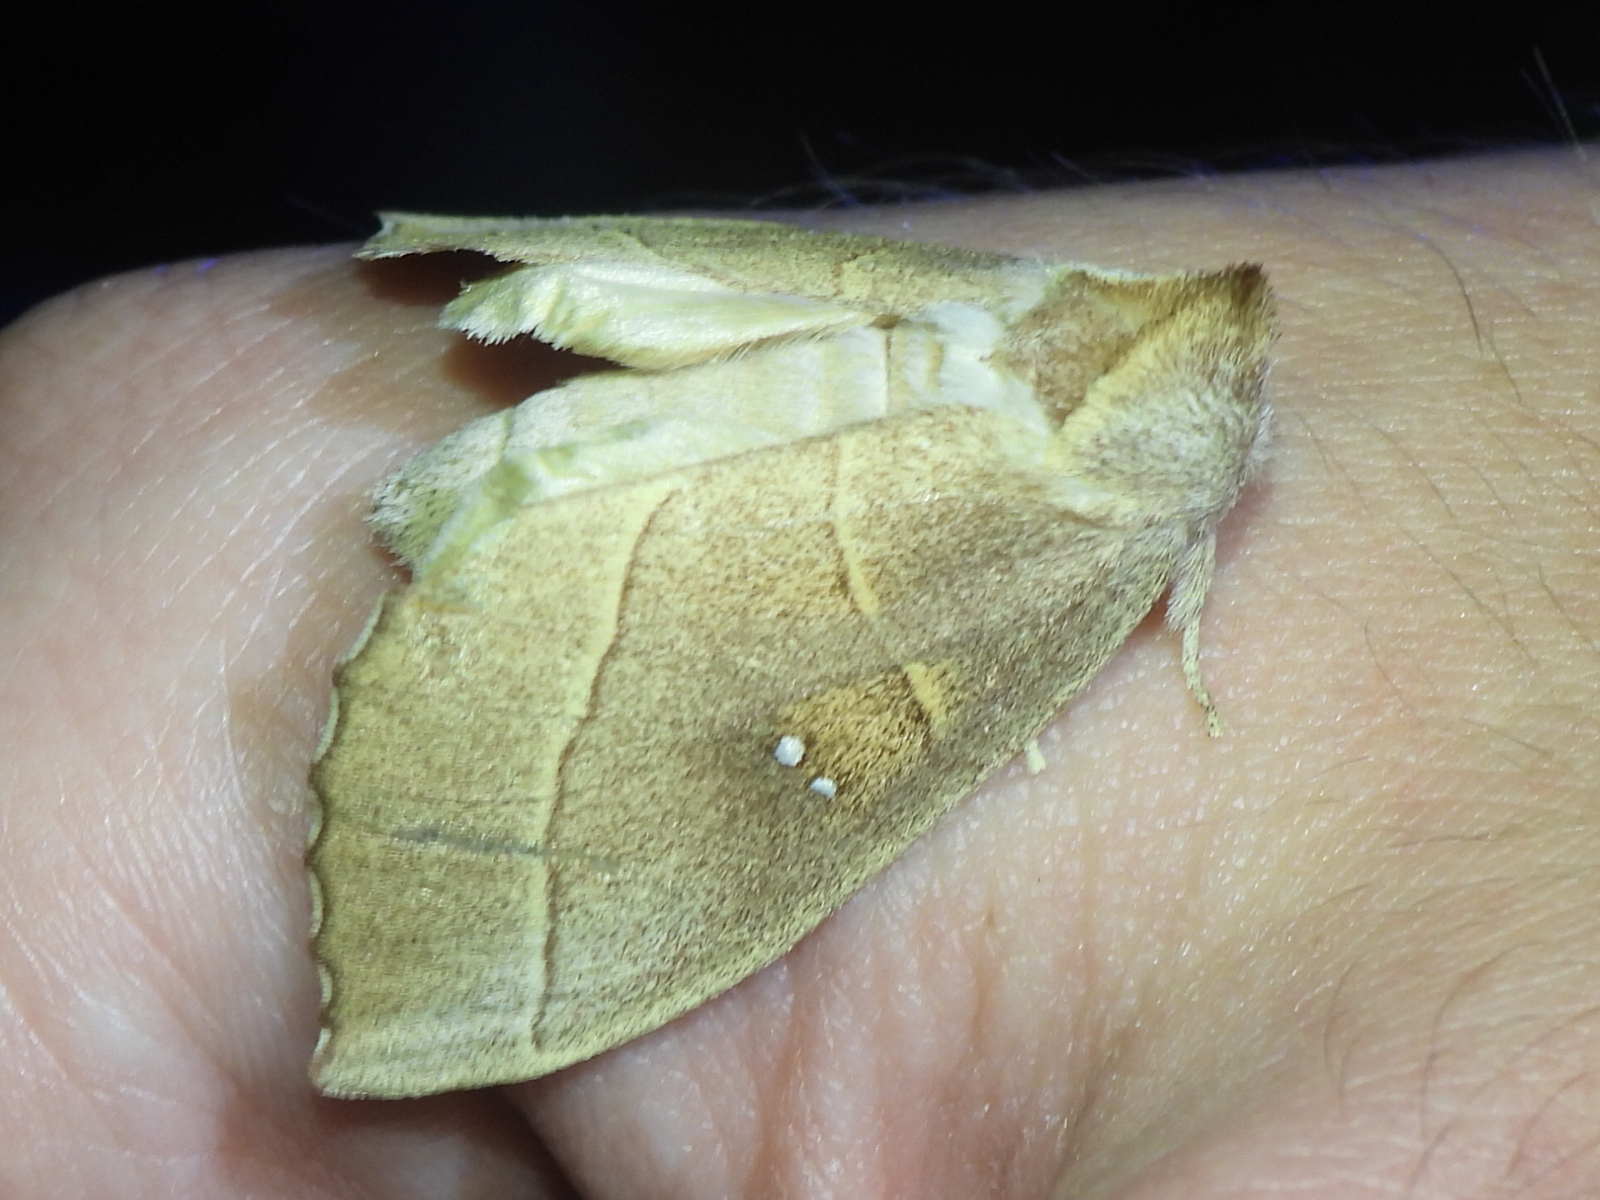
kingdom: Animalia
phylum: Arthropoda
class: Insecta
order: Lepidoptera
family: Notodontidae
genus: Nadata
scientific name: Nadata gibbosa
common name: White-dotted prominent
